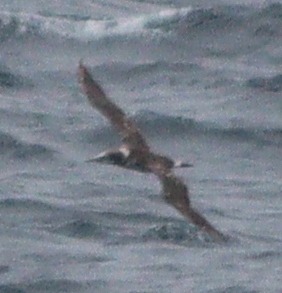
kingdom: Animalia
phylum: Chordata
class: Aves
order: Suliformes
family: Sulidae
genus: Morus
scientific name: Morus bassanus
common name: Northern gannet
